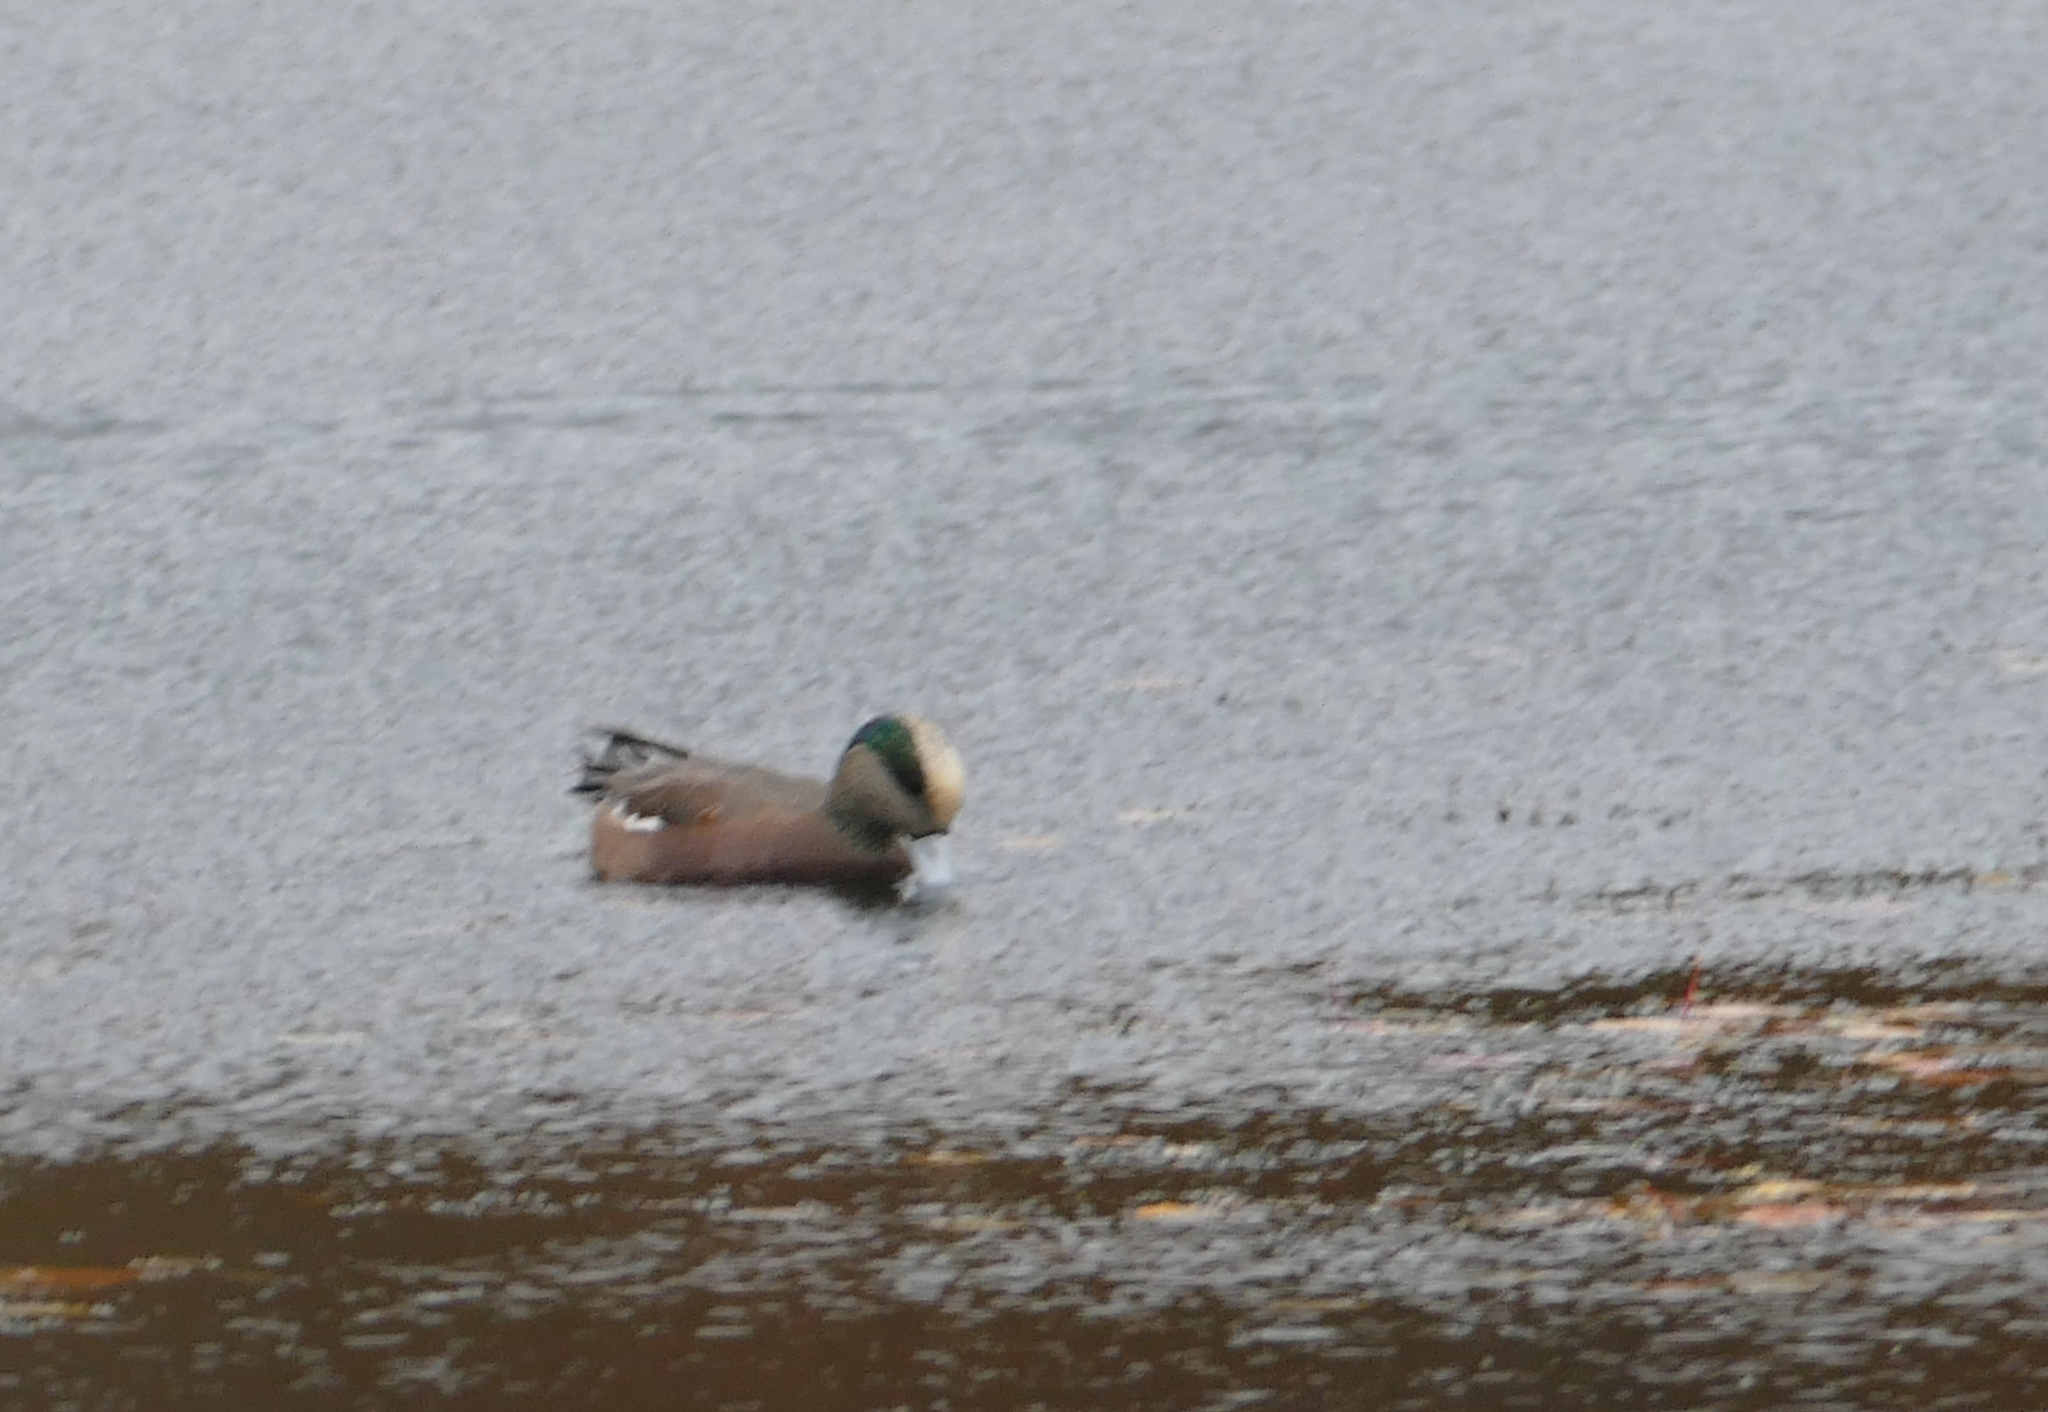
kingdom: Animalia
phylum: Chordata
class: Aves
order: Anseriformes
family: Anatidae
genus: Mareca
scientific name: Mareca americana
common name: American wigeon
